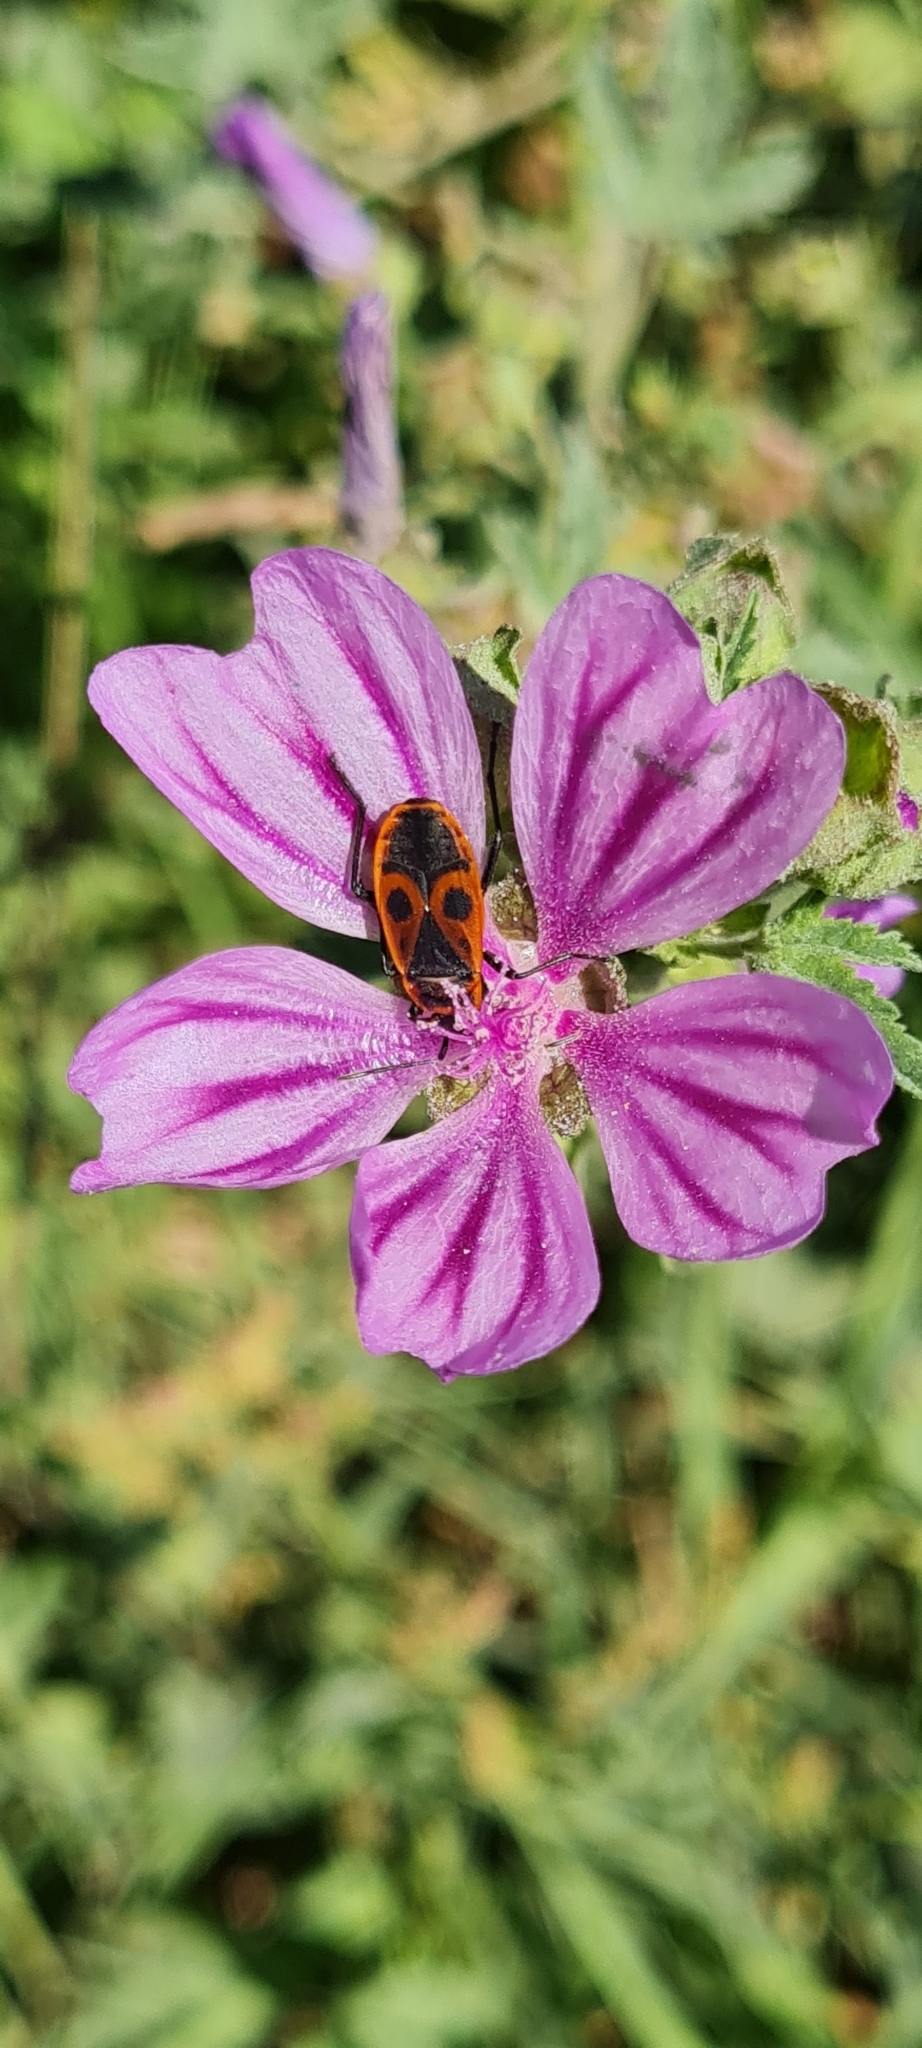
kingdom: Animalia
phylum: Arthropoda
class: Insecta
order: Hemiptera
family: Pyrrhocoridae
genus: Pyrrhocoris
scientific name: Pyrrhocoris apterus
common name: Firebug
